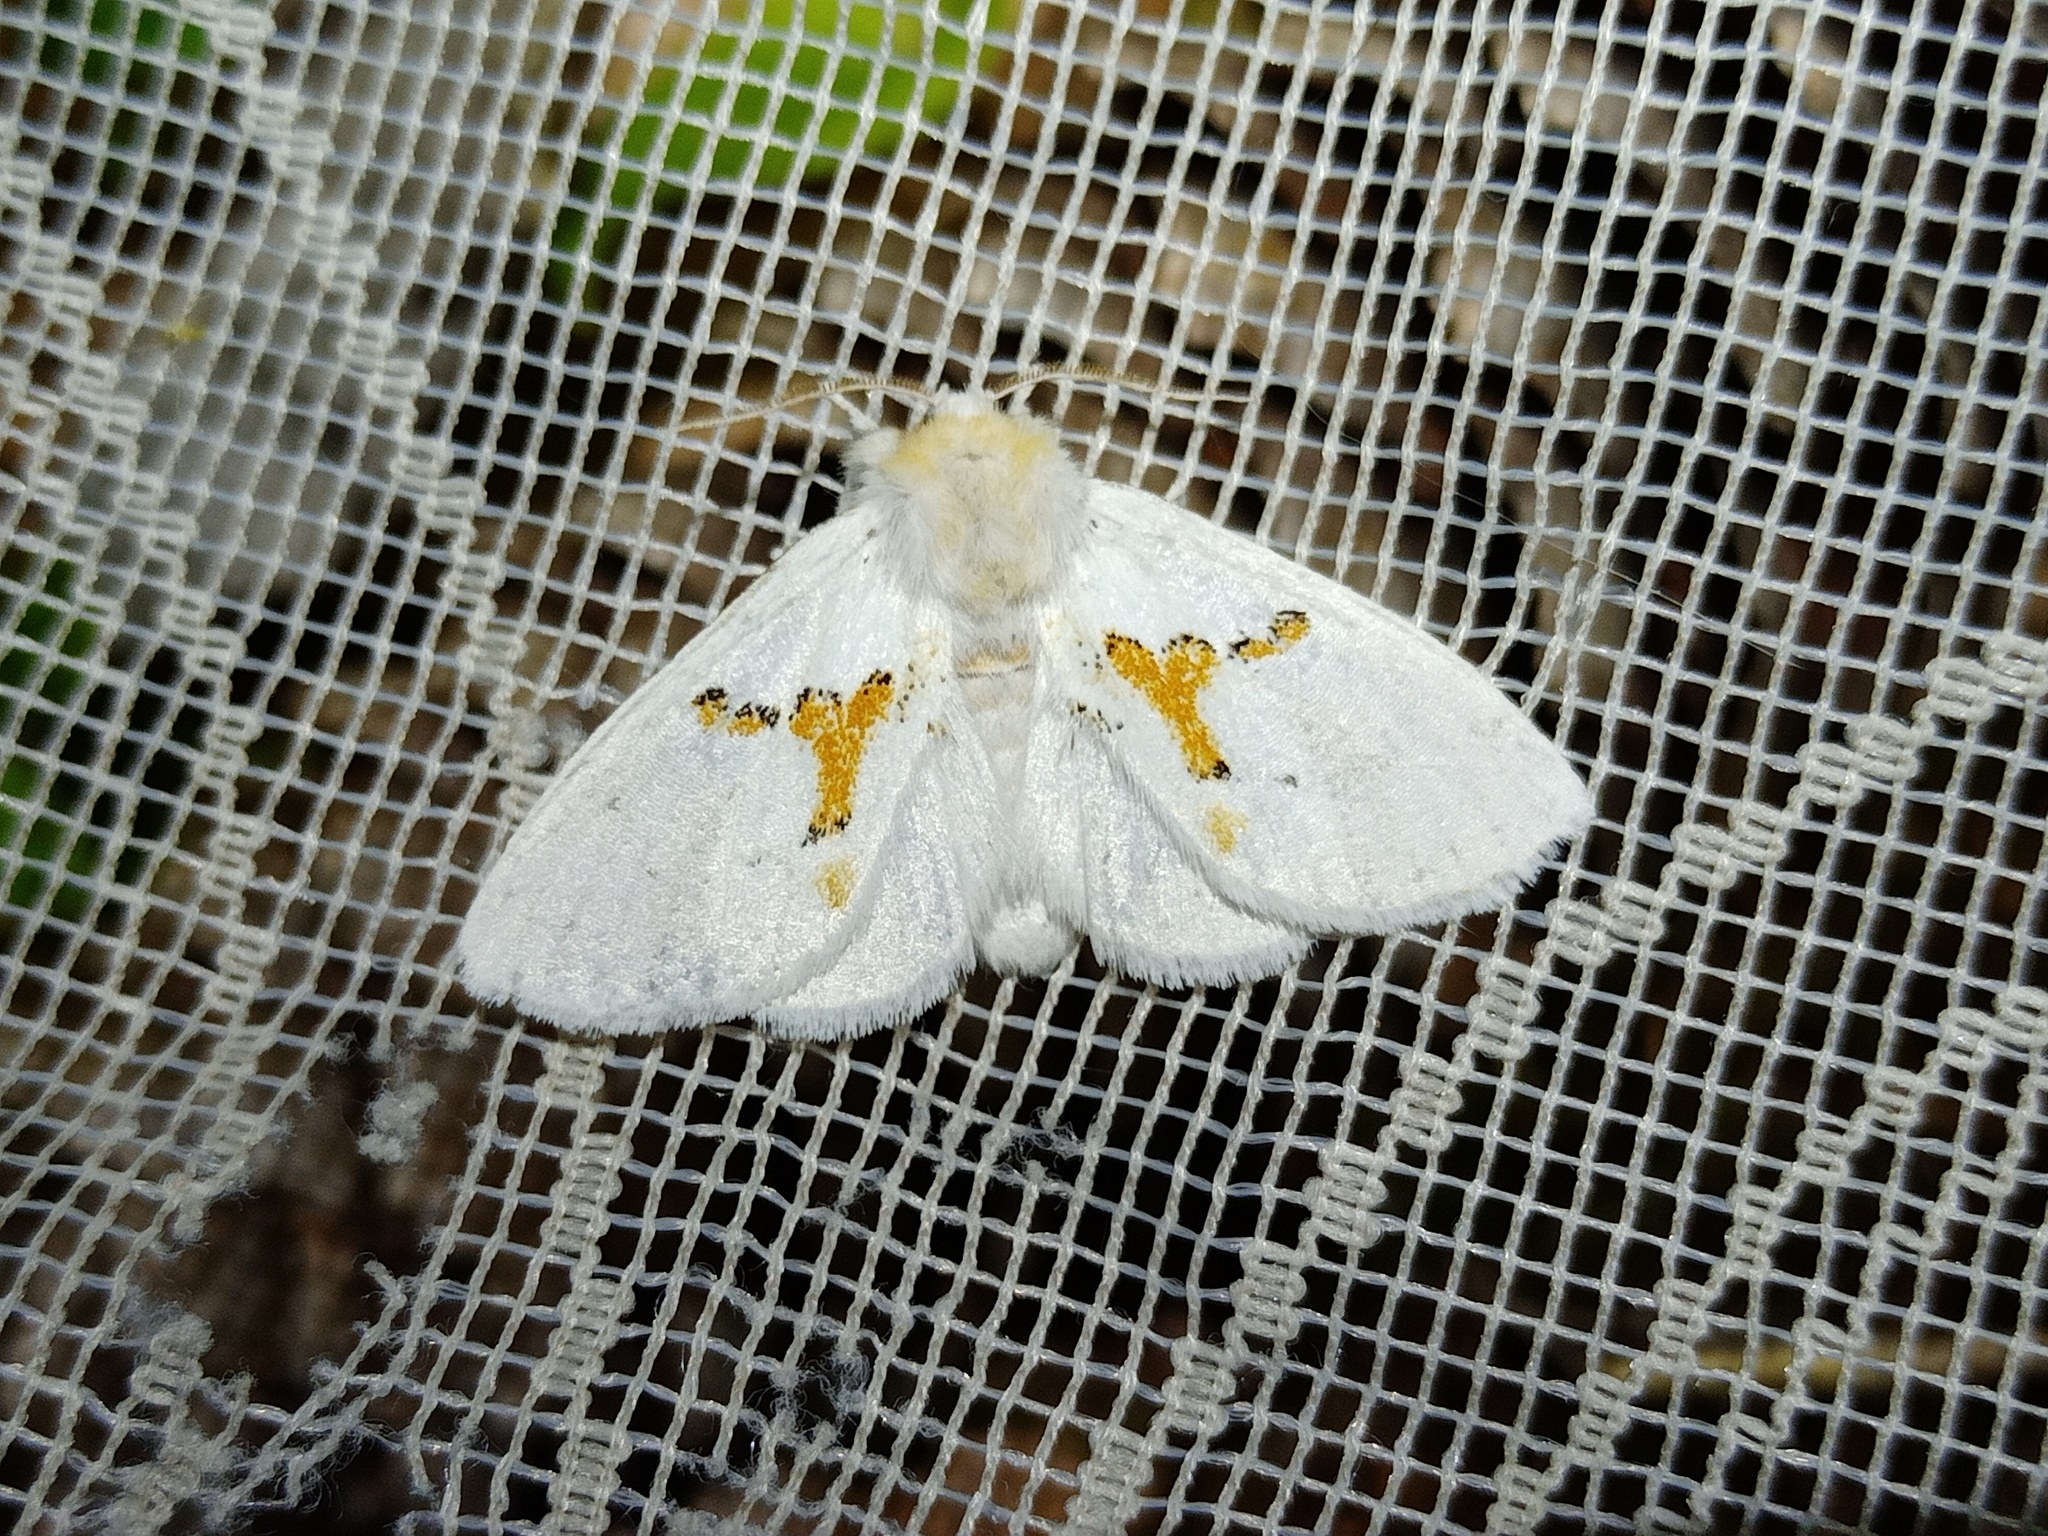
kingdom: Animalia
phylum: Arthropoda
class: Insecta
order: Lepidoptera
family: Notodontidae
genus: Leucodonta
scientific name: Leucodonta bicoloria
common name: White prominent
